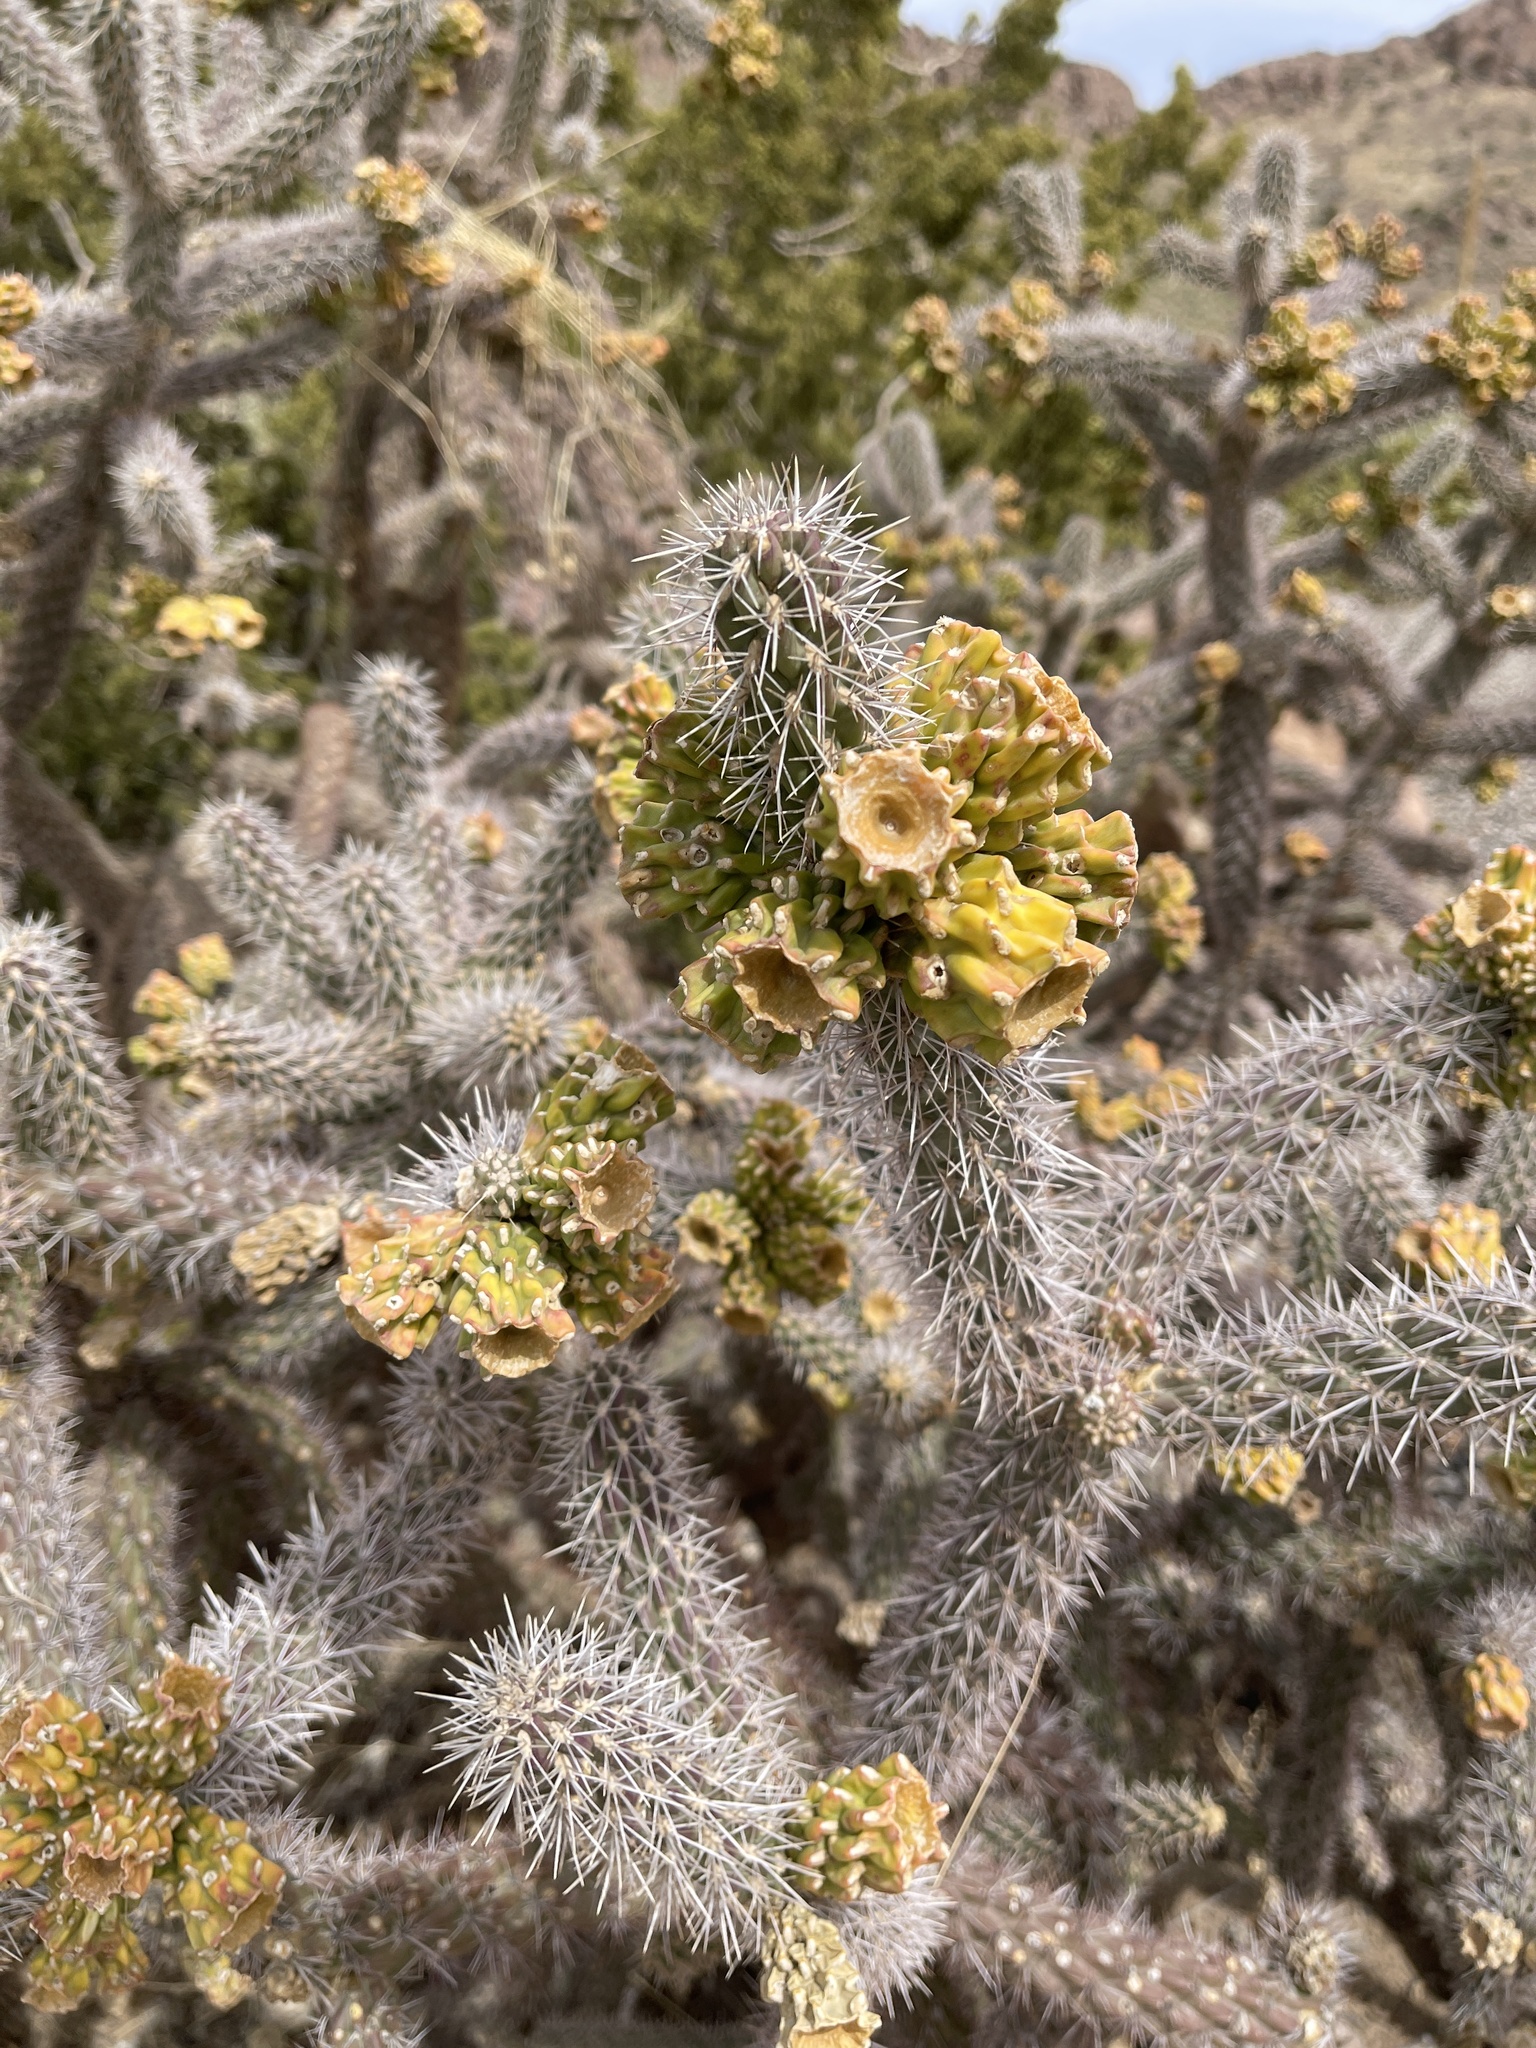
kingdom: Plantae
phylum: Tracheophyta
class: Magnoliopsida
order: Caryophyllales
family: Cactaceae
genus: Cylindropuntia
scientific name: Cylindropuntia imbricata
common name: Candelabrum cactus
